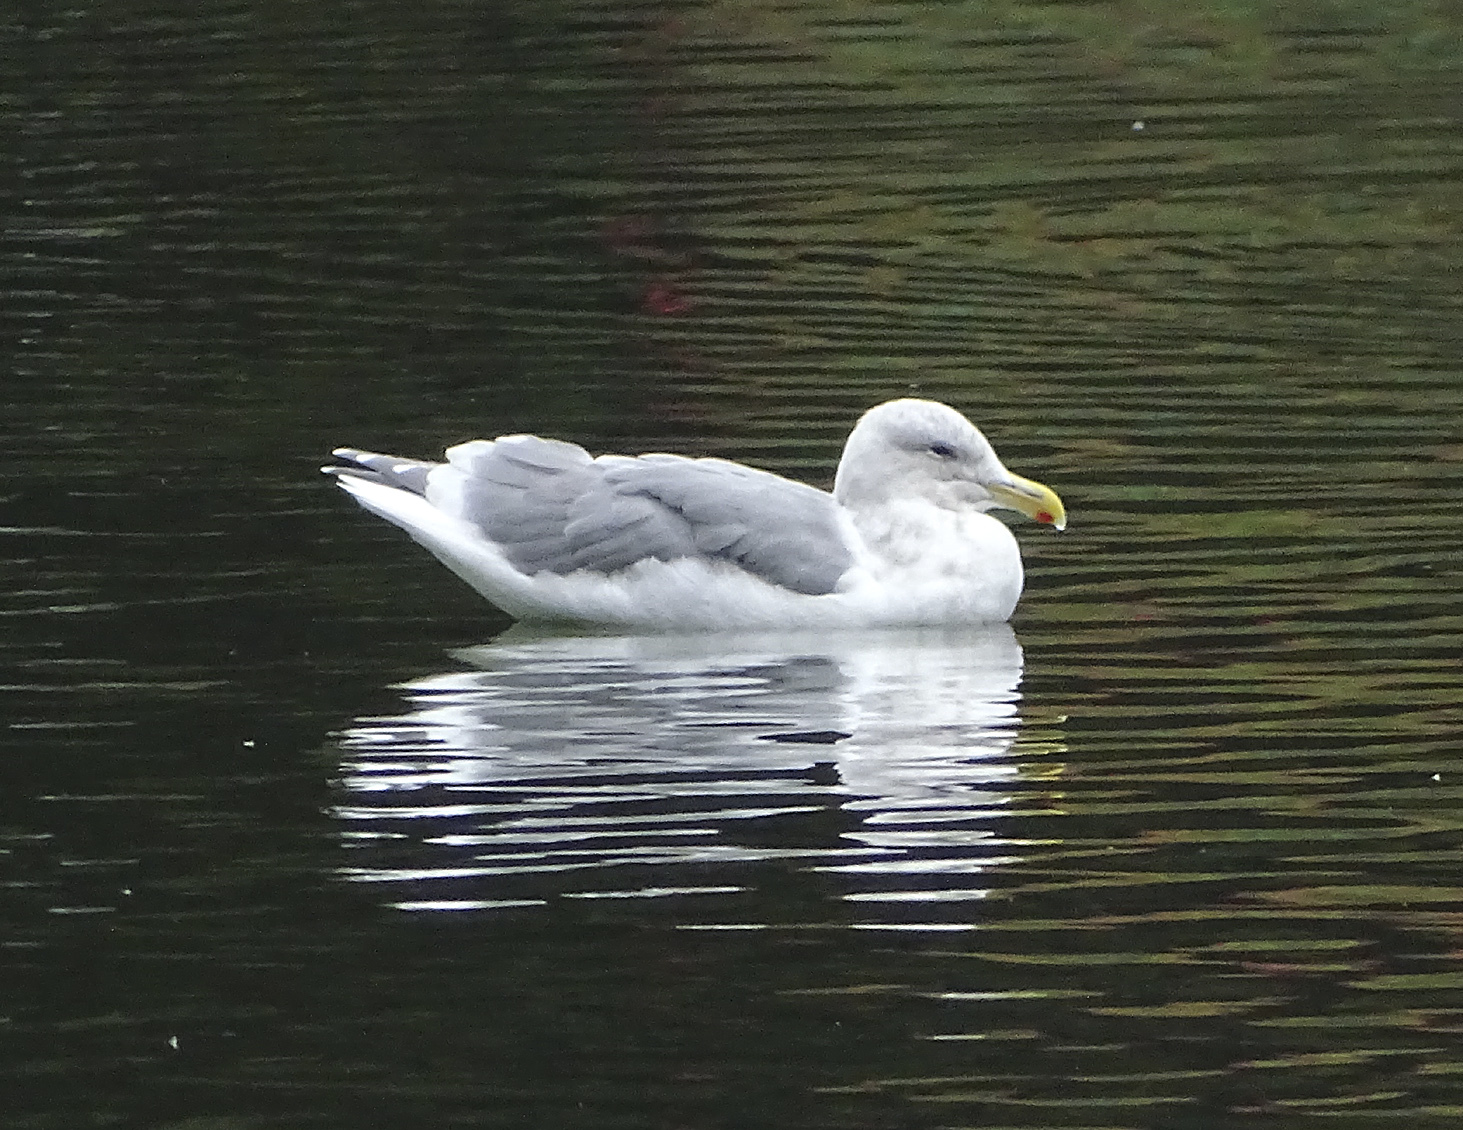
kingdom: Animalia
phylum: Chordata
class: Aves
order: Charadriiformes
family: Laridae
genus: Larus
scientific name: Larus glaucescens
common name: Glaucous-winged gull
